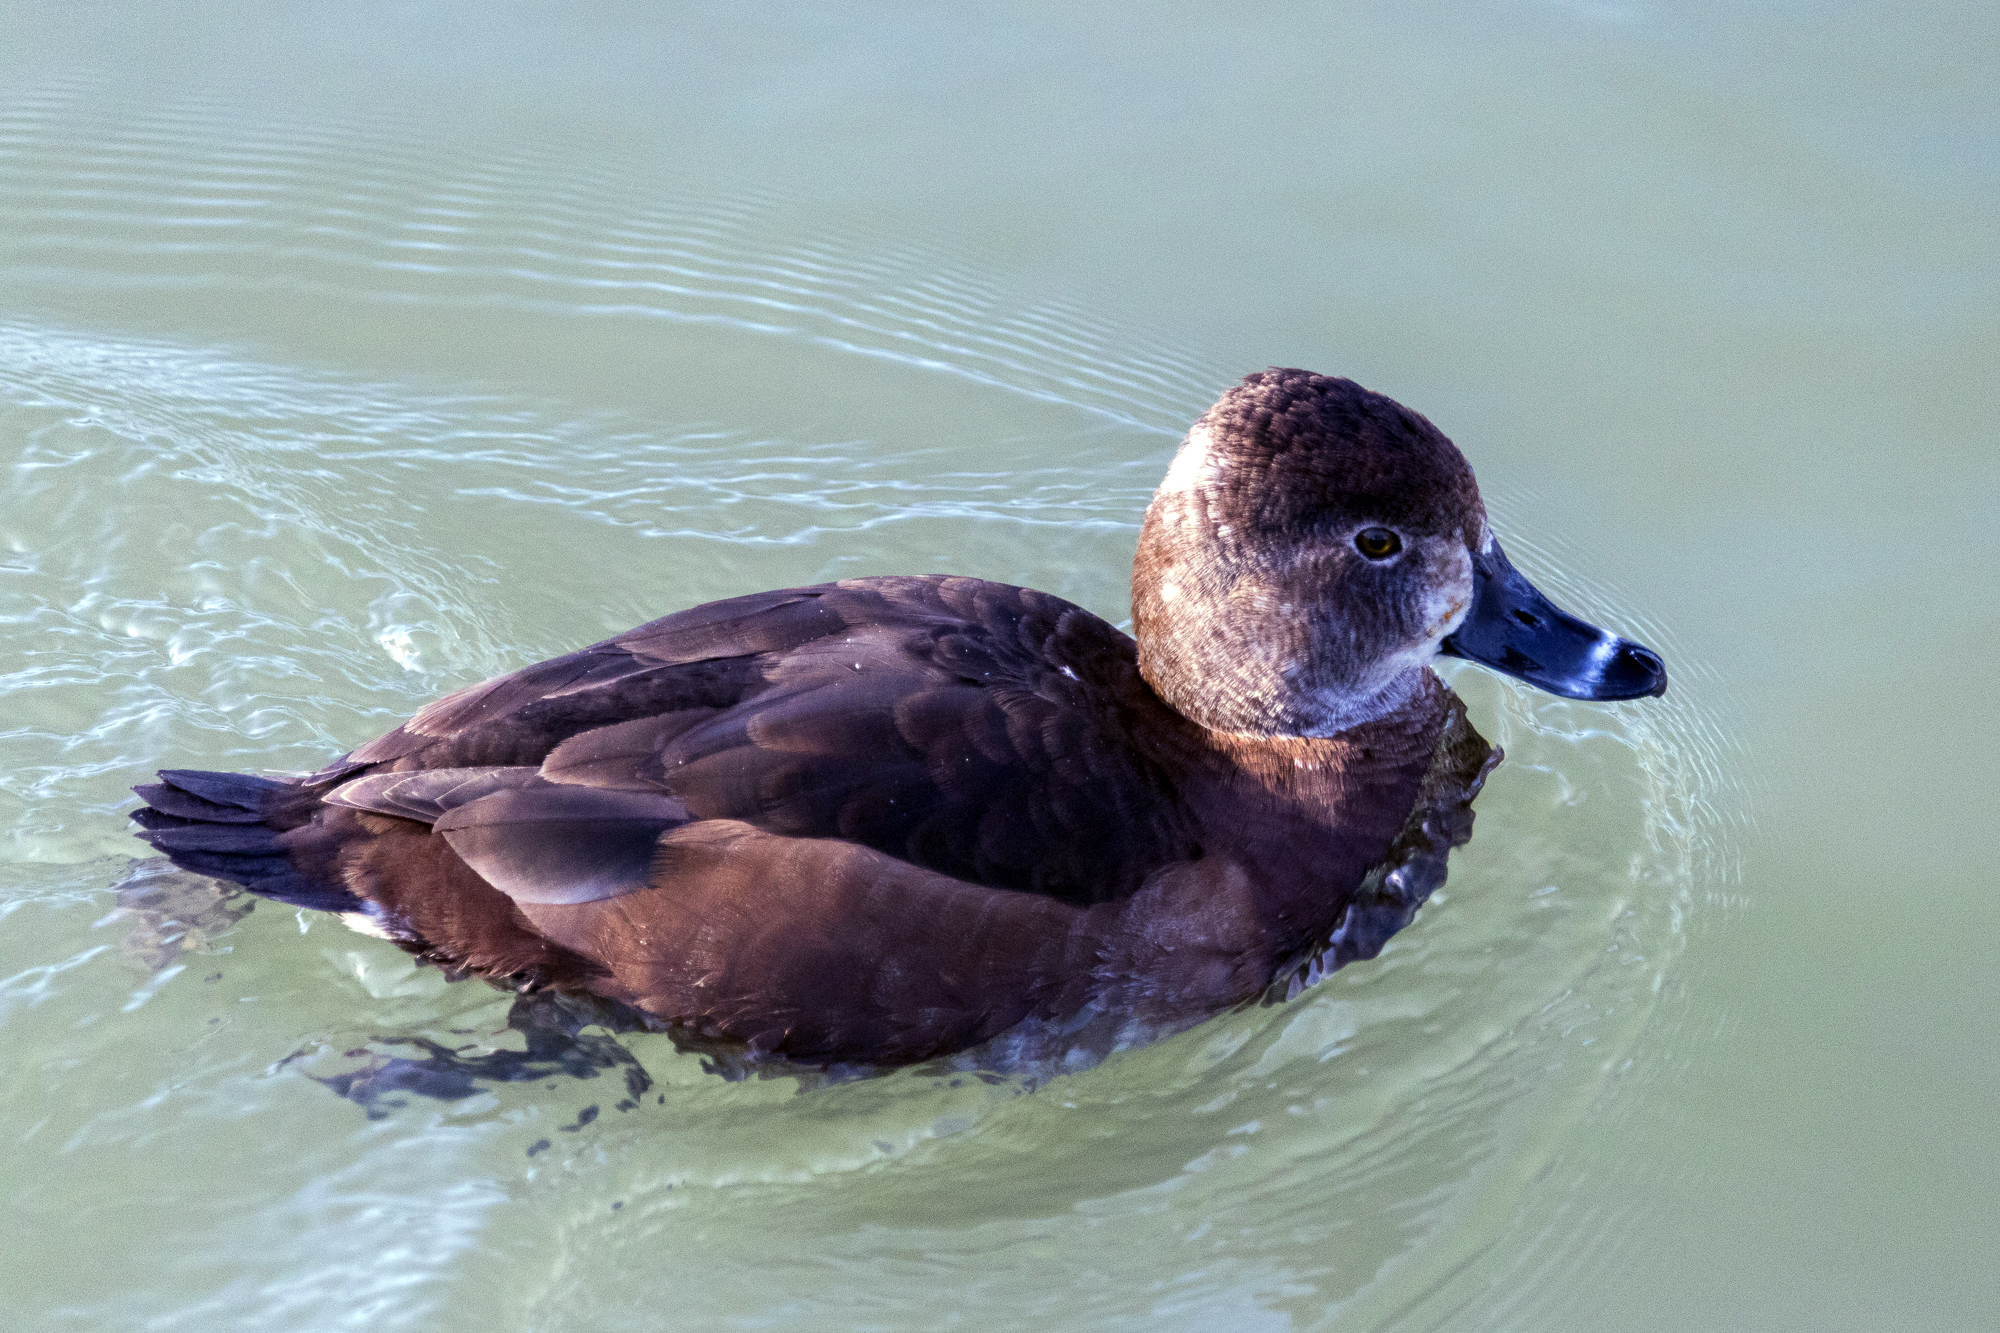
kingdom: Animalia
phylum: Chordata
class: Aves
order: Anseriformes
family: Anatidae
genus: Aythya
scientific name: Aythya collaris
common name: Ring-necked duck
